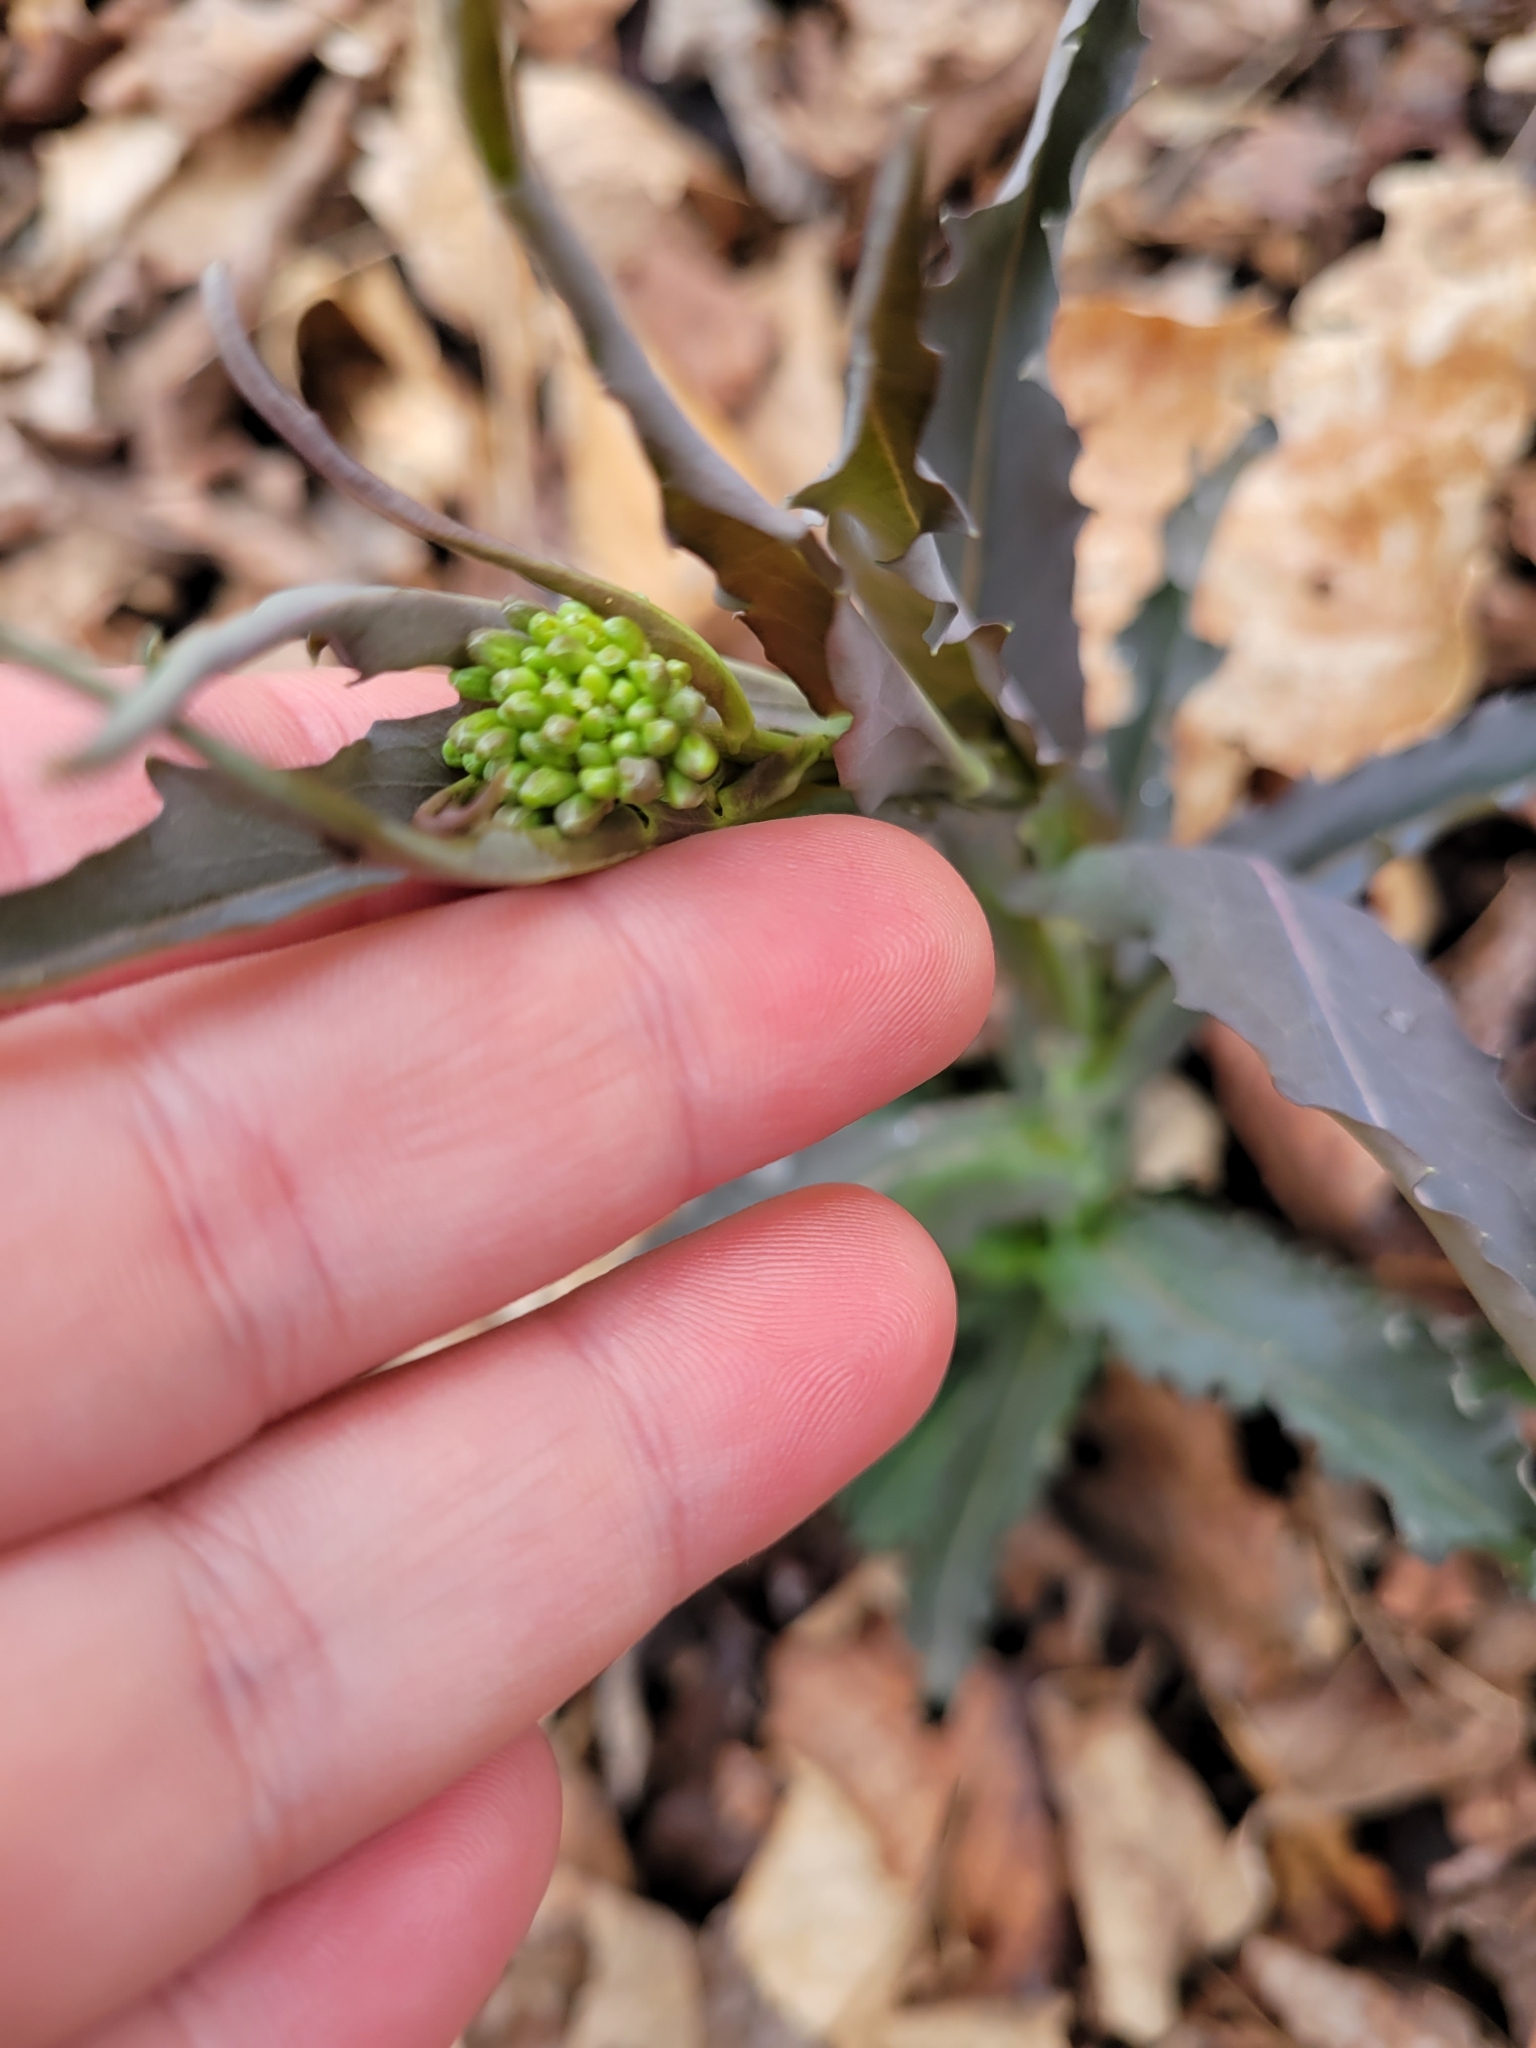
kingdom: Plantae
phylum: Tracheophyta
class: Magnoliopsida
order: Brassicales
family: Brassicaceae
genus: Borodinia
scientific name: Borodinia laevigata
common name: Smooth rockcress
